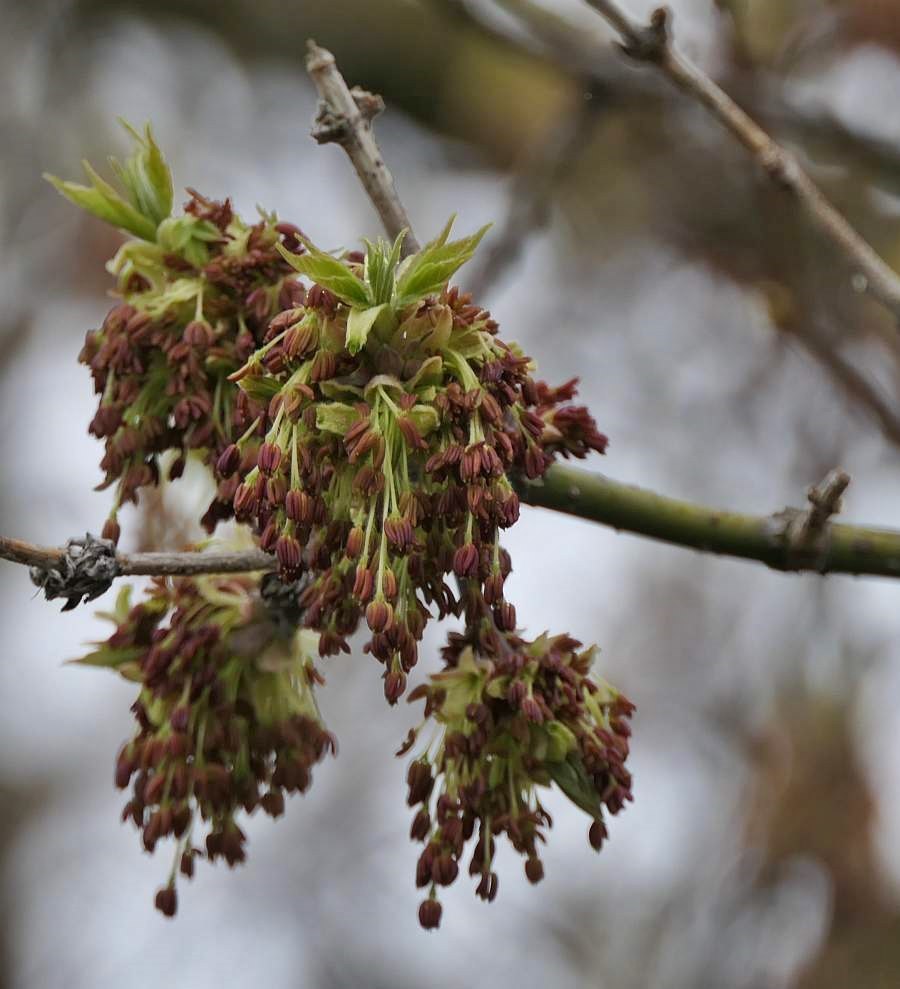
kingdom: Plantae
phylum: Tracheophyta
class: Magnoliopsida
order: Sapindales
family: Sapindaceae
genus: Acer
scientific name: Acer negundo
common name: Ashleaf maple
